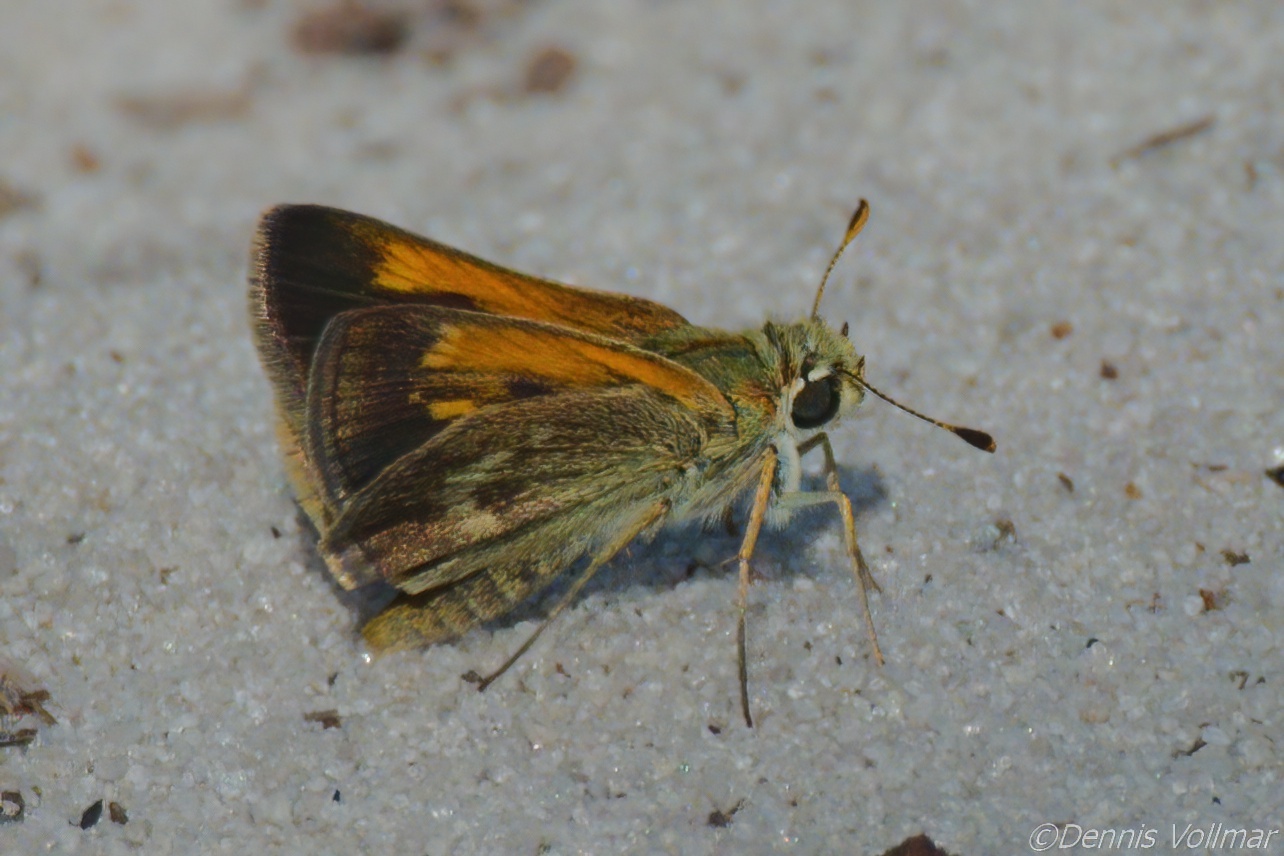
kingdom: Animalia
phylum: Arthropoda
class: Insecta
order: Lepidoptera
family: Hesperiidae
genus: Polites
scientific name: Polites baracoa
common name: Baracoa skipper
